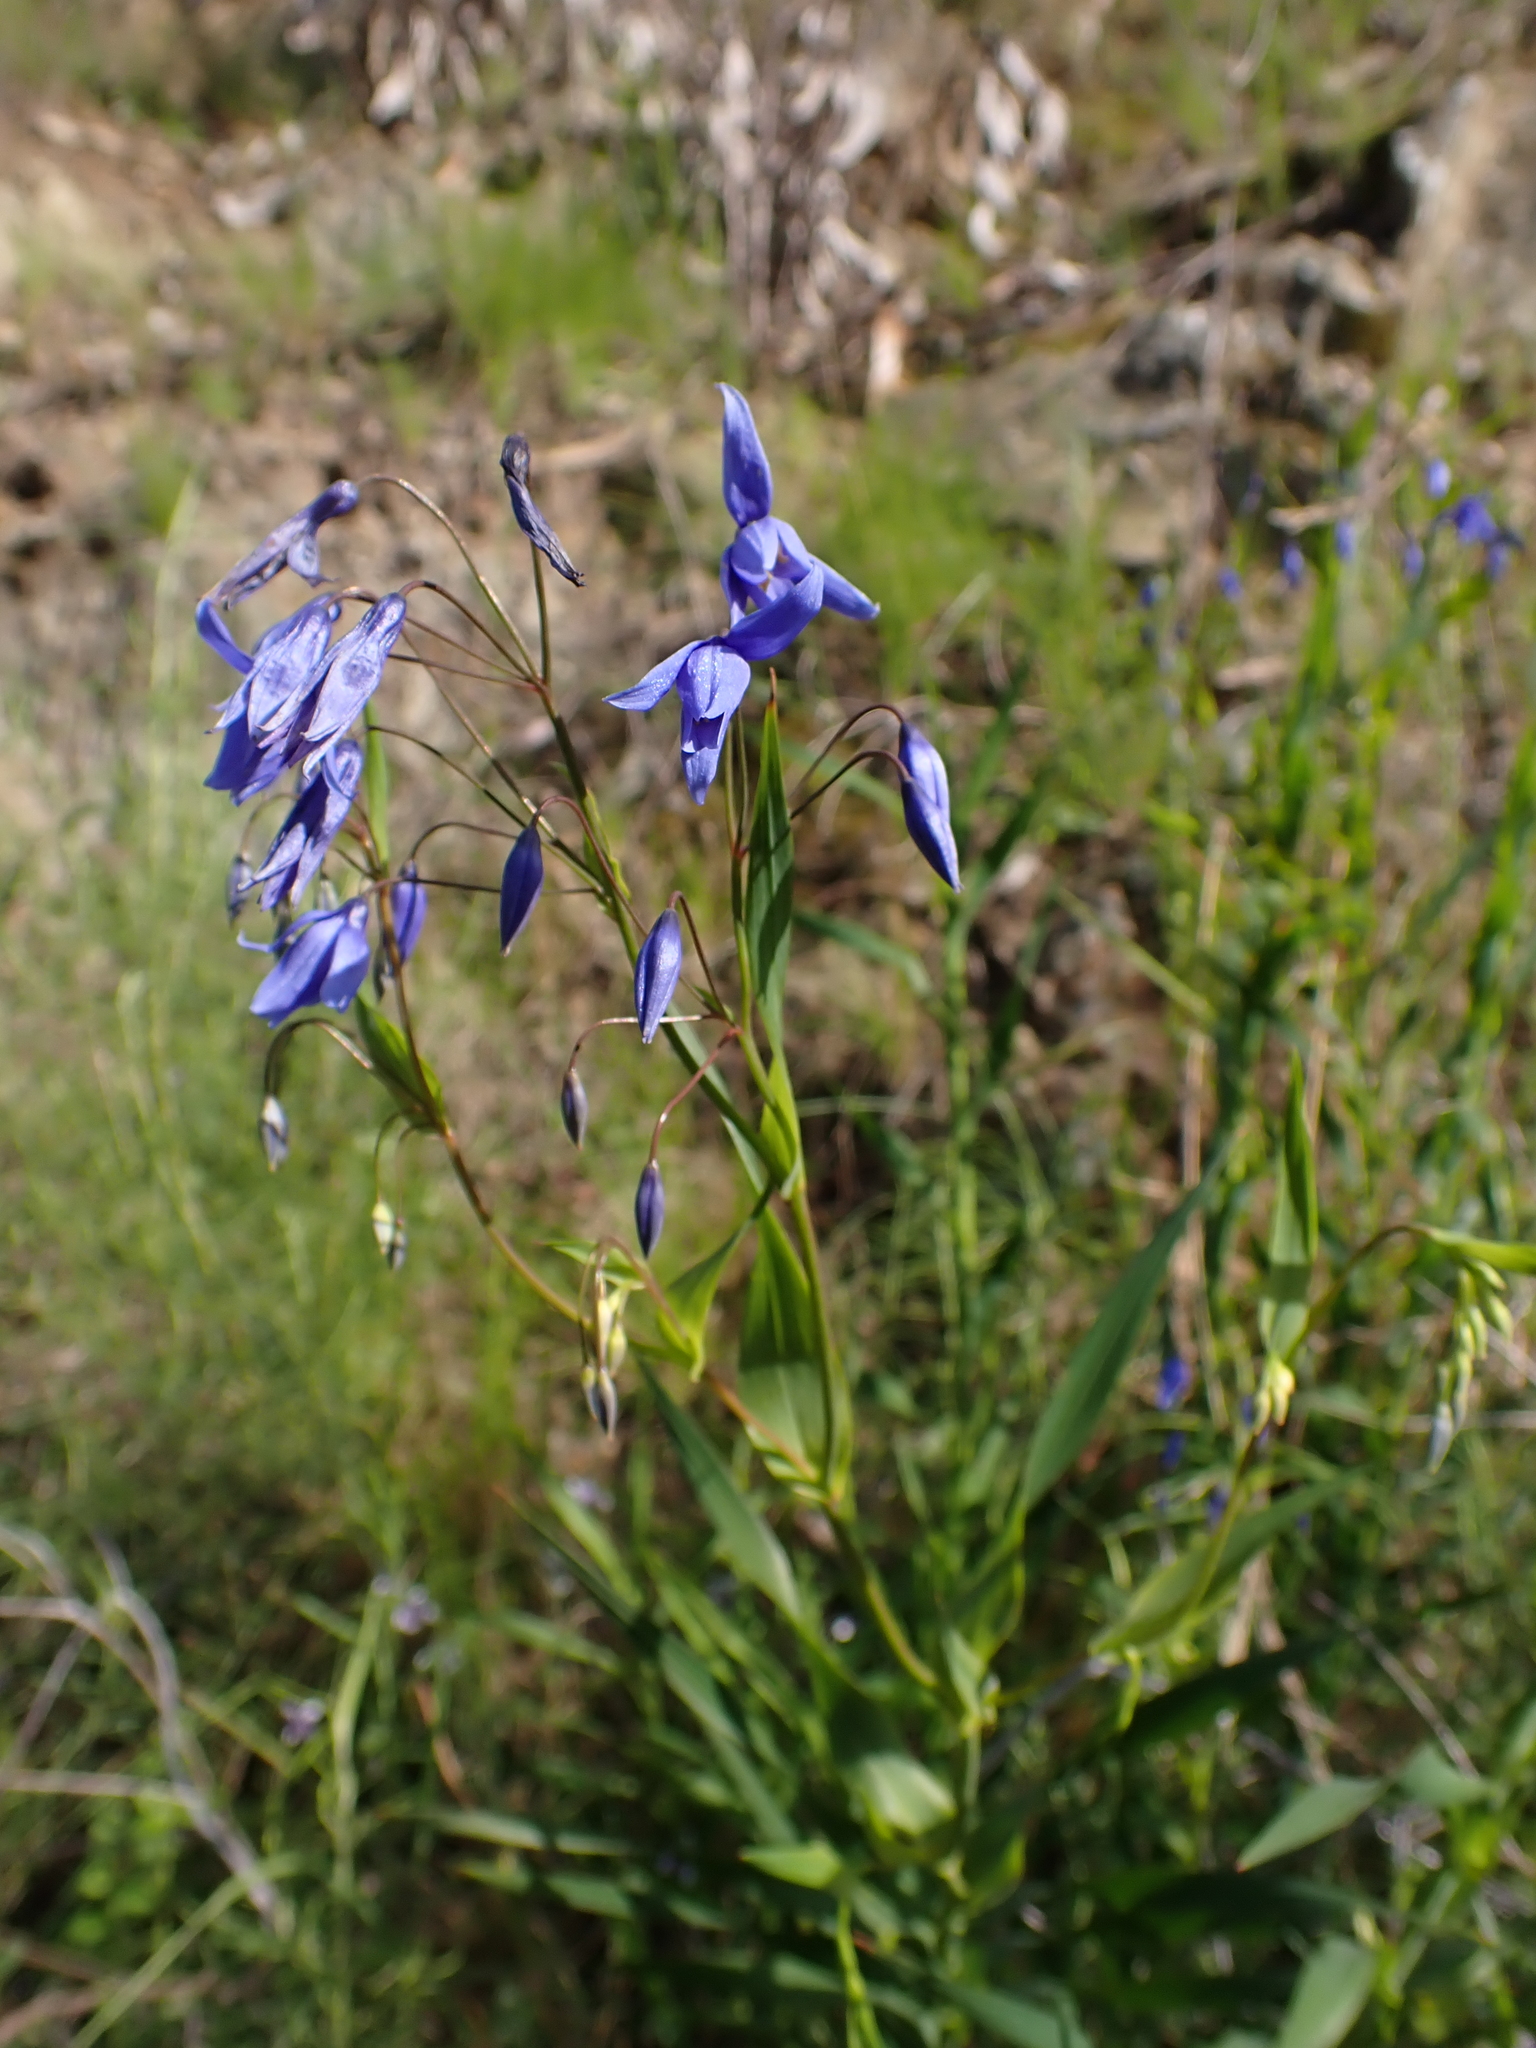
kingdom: Plantae
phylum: Tracheophyta
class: Liliopsida
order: Asparagales
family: Asphodelaceae
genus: Stypandra
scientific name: Stypandra glauca
